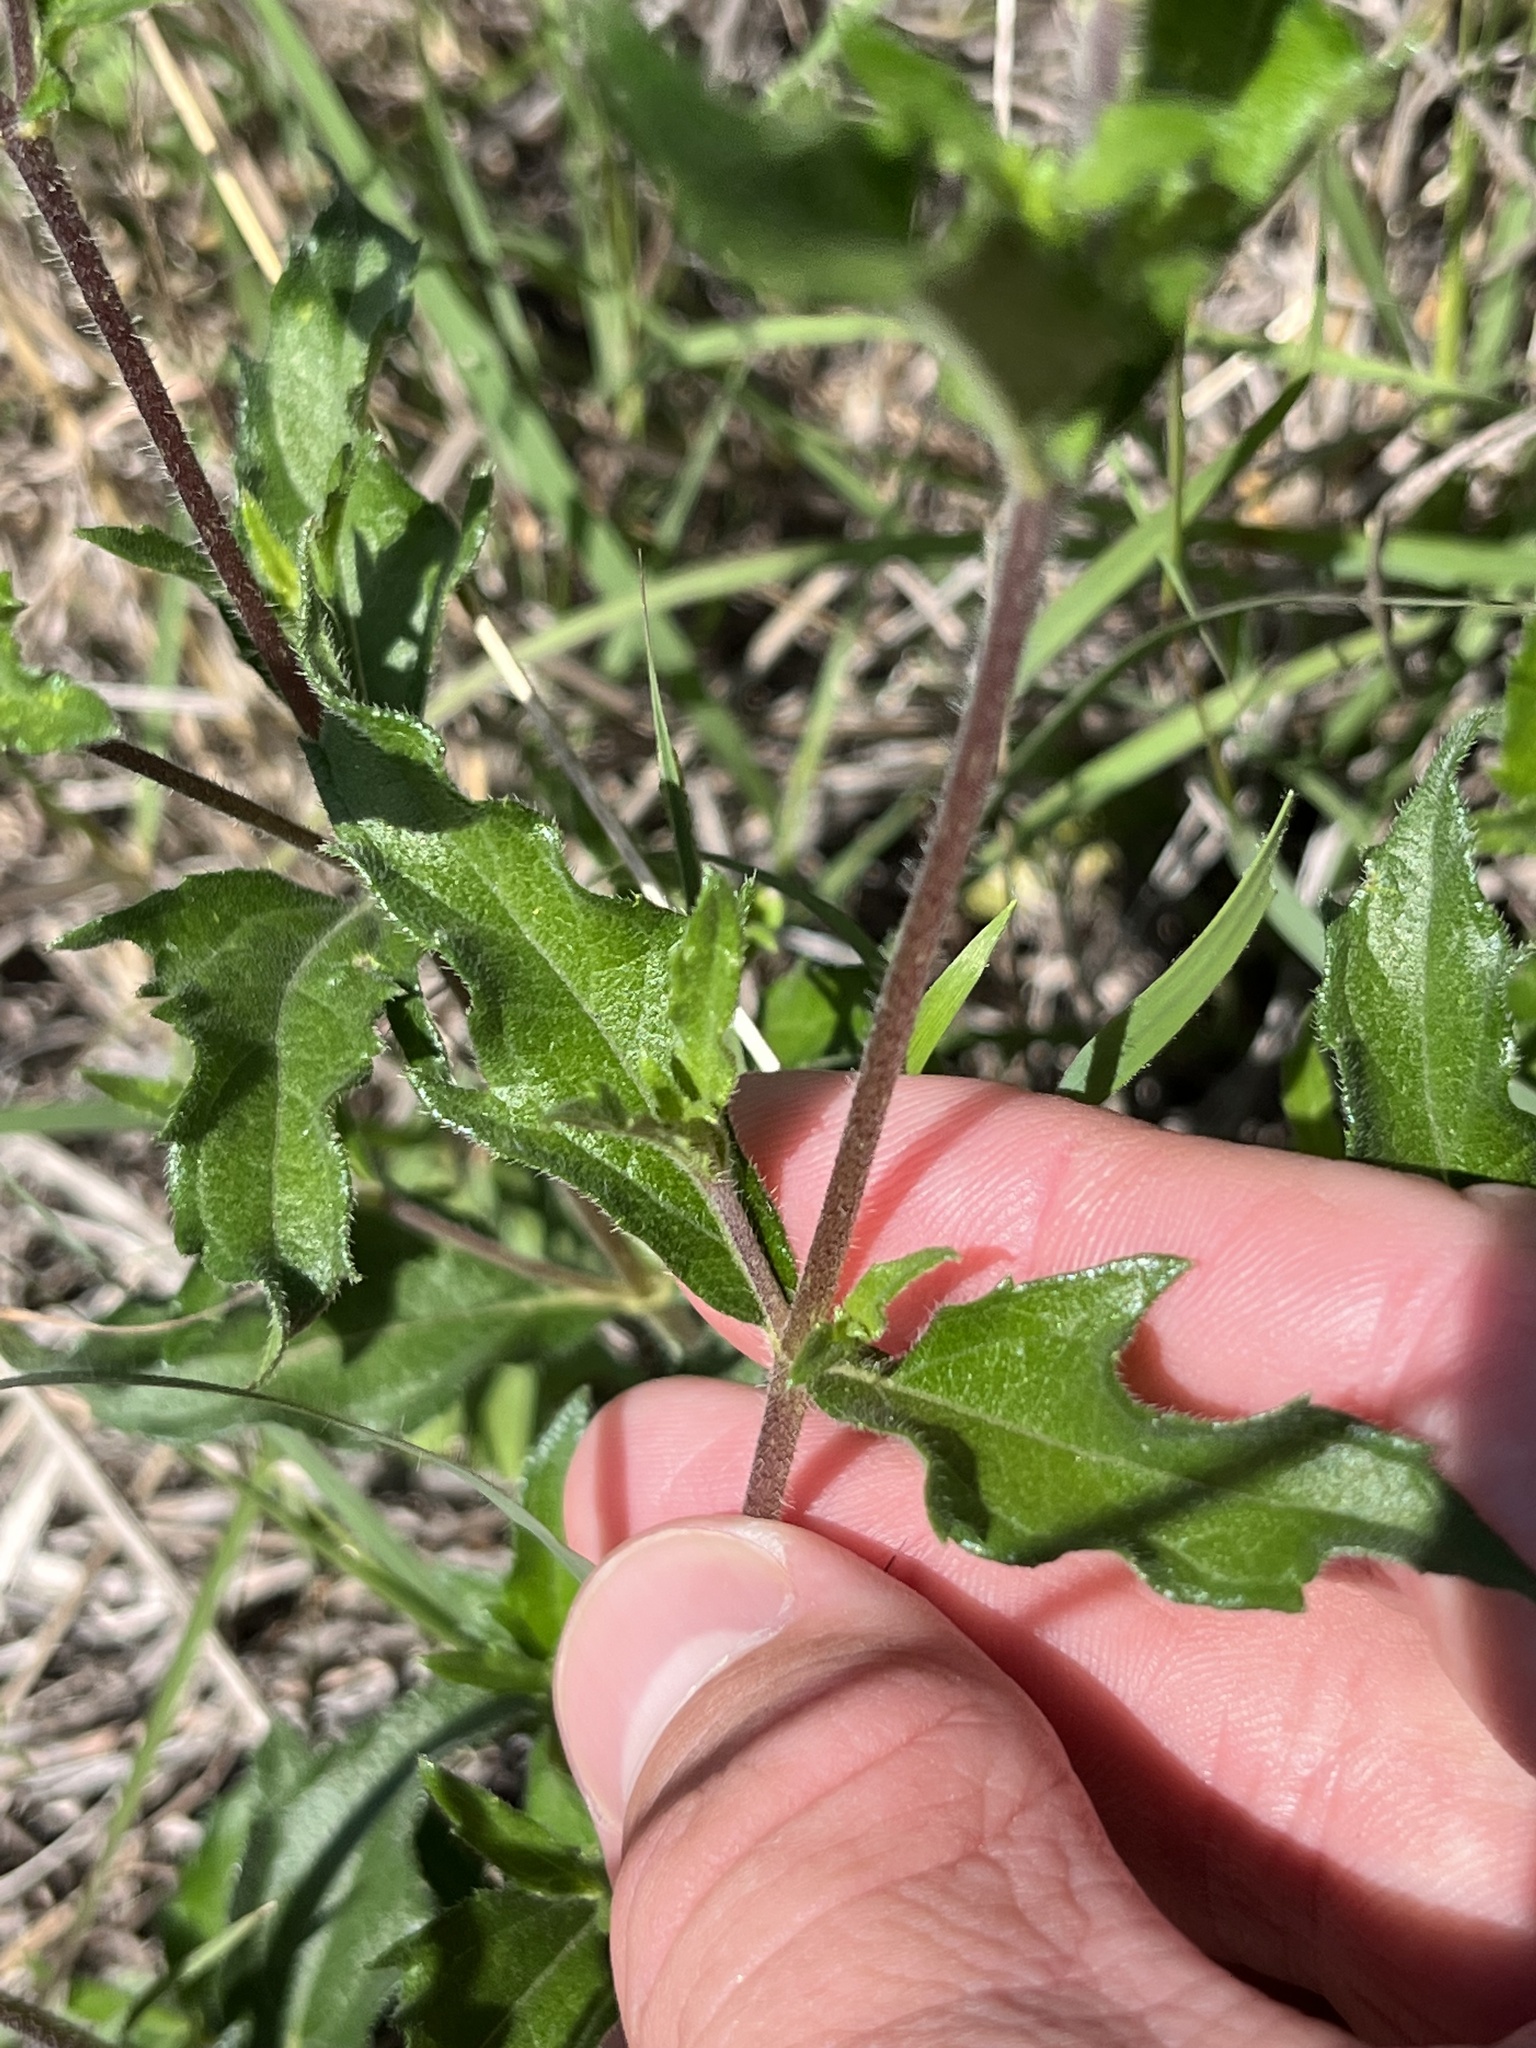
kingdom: Plantae
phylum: Tracheophyta
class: Magnoliopsida
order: Asterales
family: Asteraceae
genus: Wedelia
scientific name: Wedelia acapulcensis
